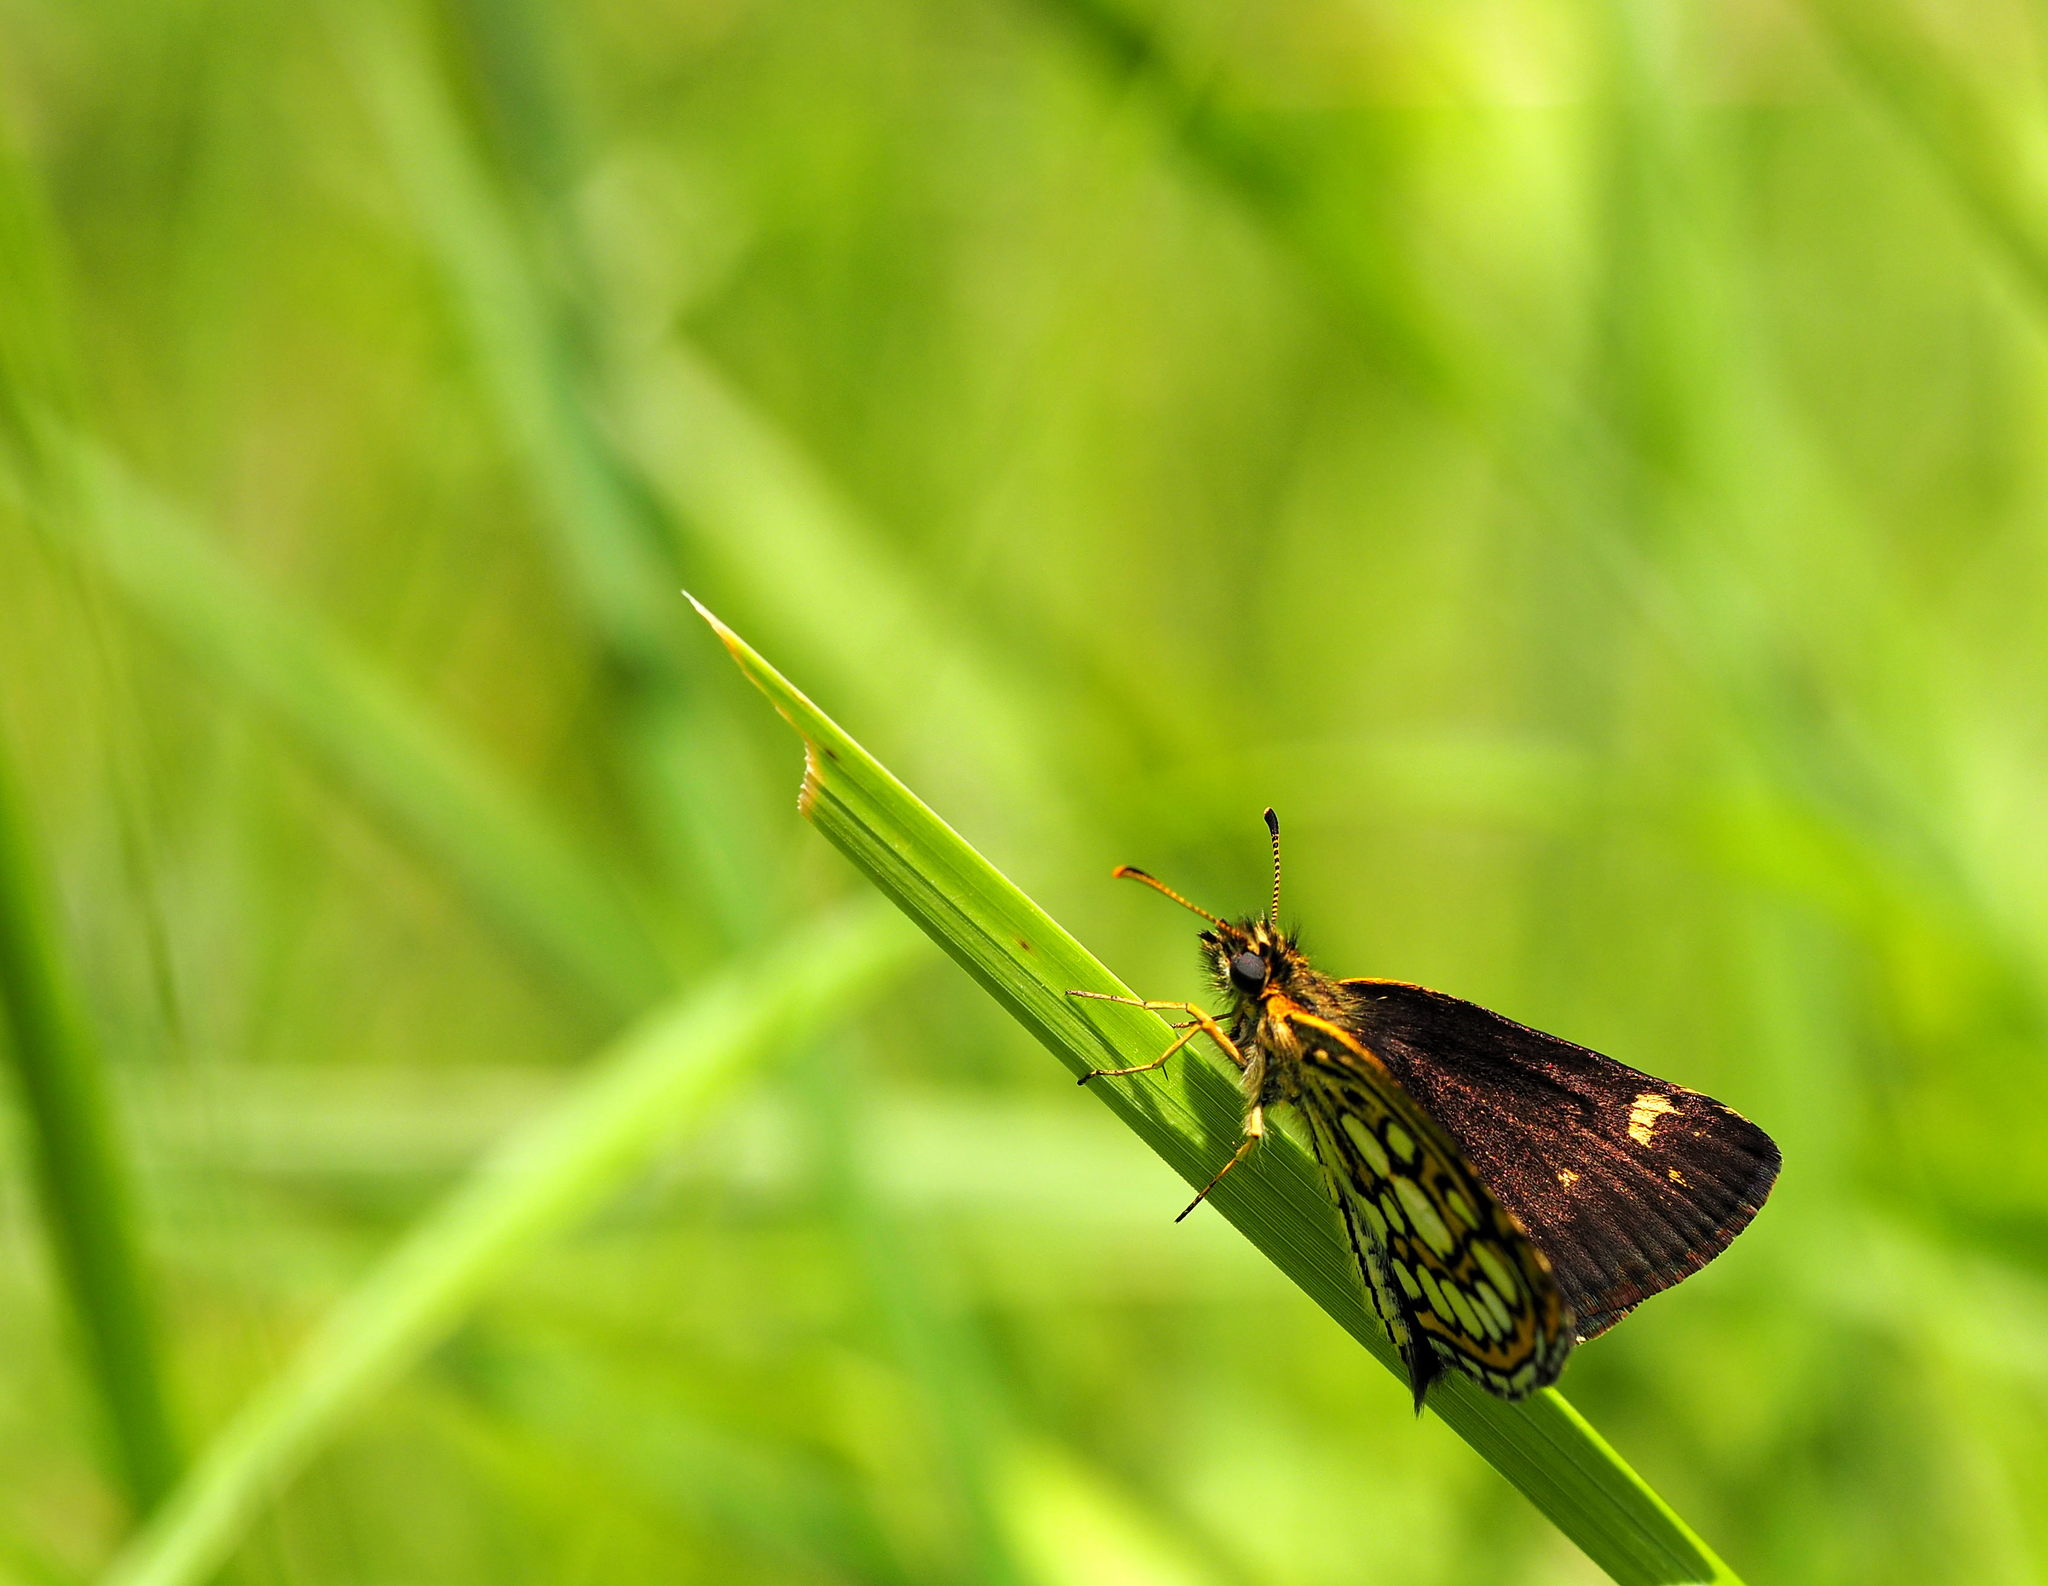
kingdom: Animalia
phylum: Arthropoda
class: Insecta
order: Lepidoptera
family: Hesperiidae
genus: Heteropterus
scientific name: Heteropterus morpheus
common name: Large chequered skipper
